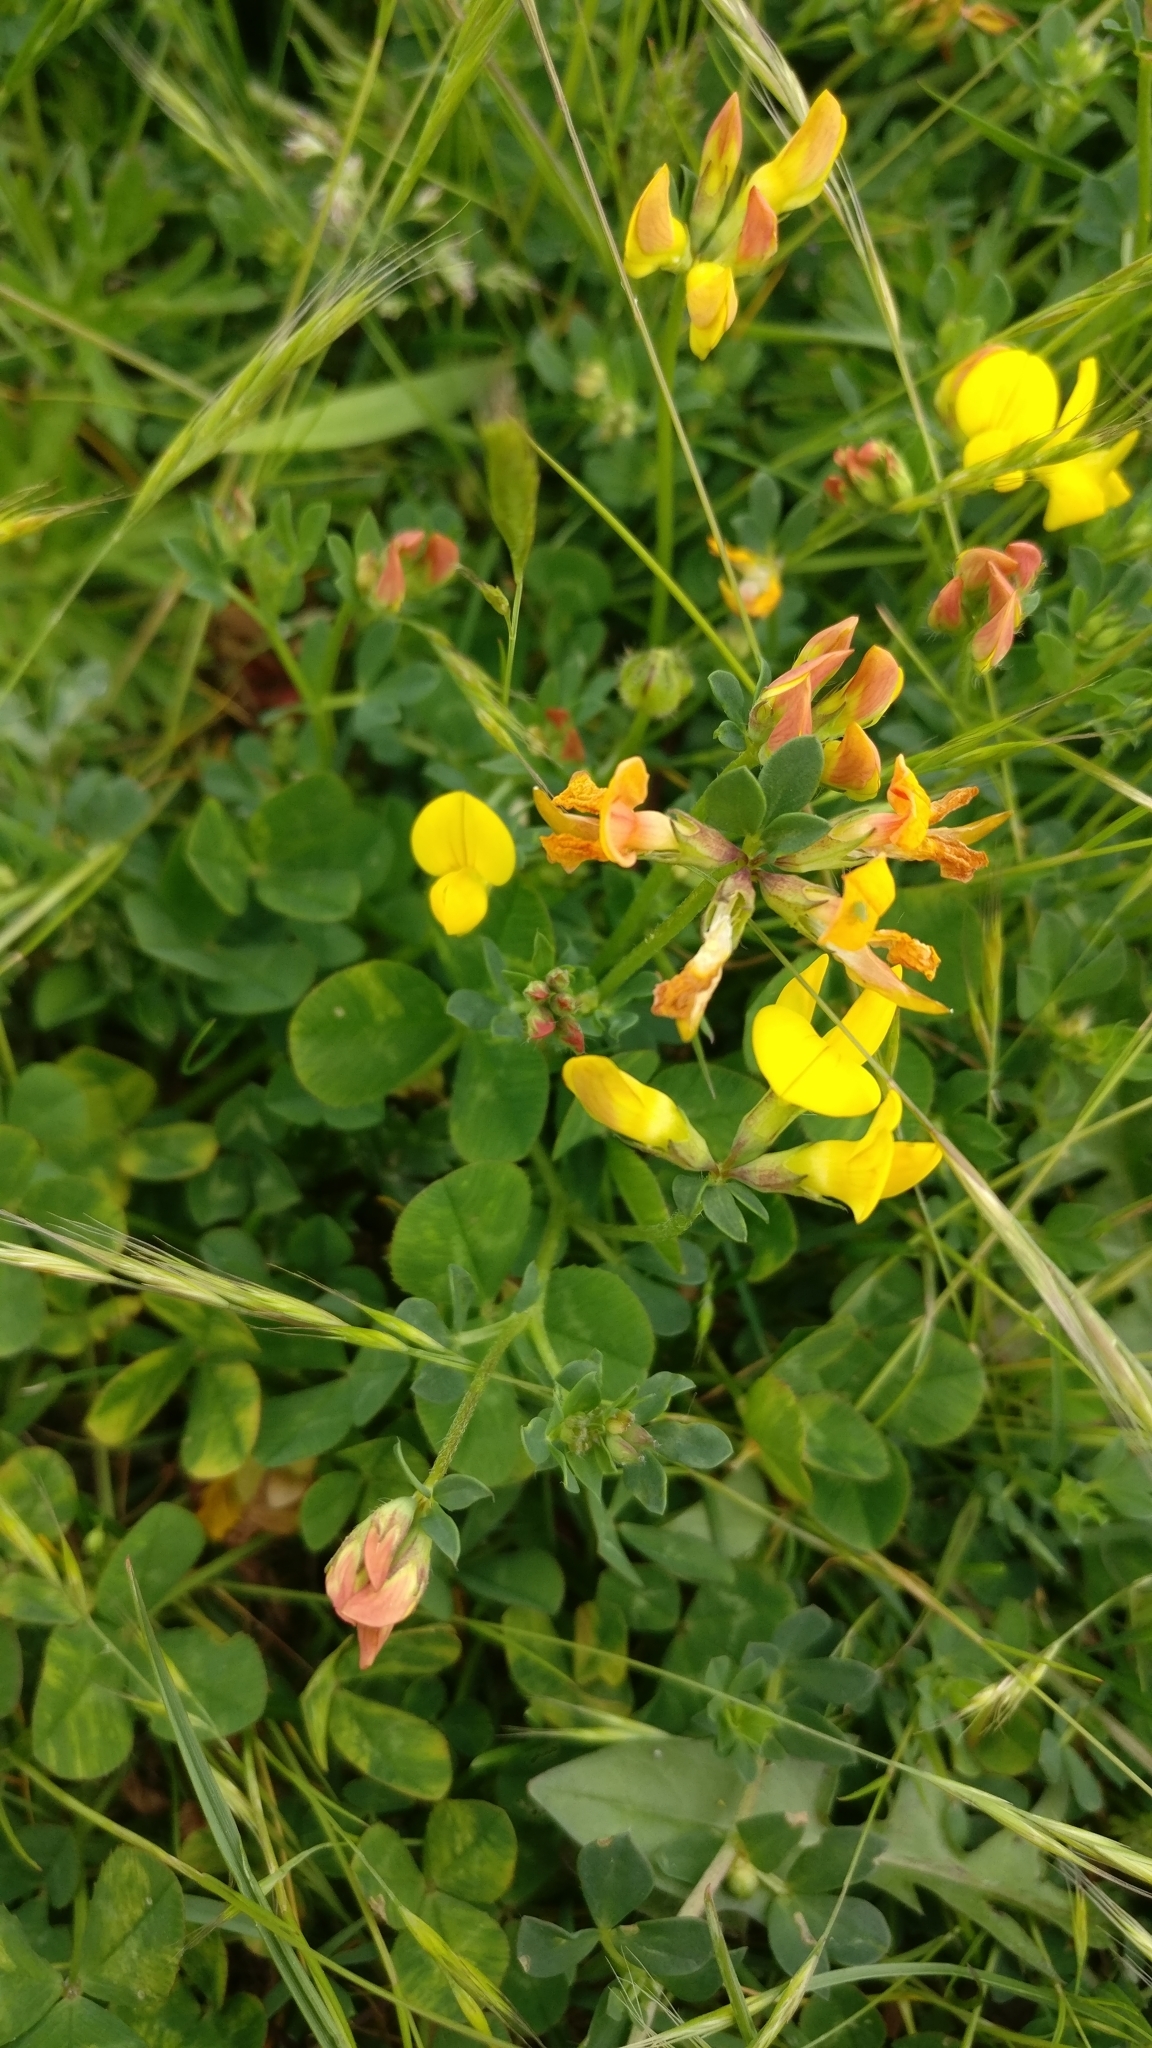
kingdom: Plantae
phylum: Tracheophyta
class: Magnoliopsida
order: Fabales
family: Fabaceae
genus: Lotus
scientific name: Lotus corniculatus
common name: Common bird's-foot-trefoil
